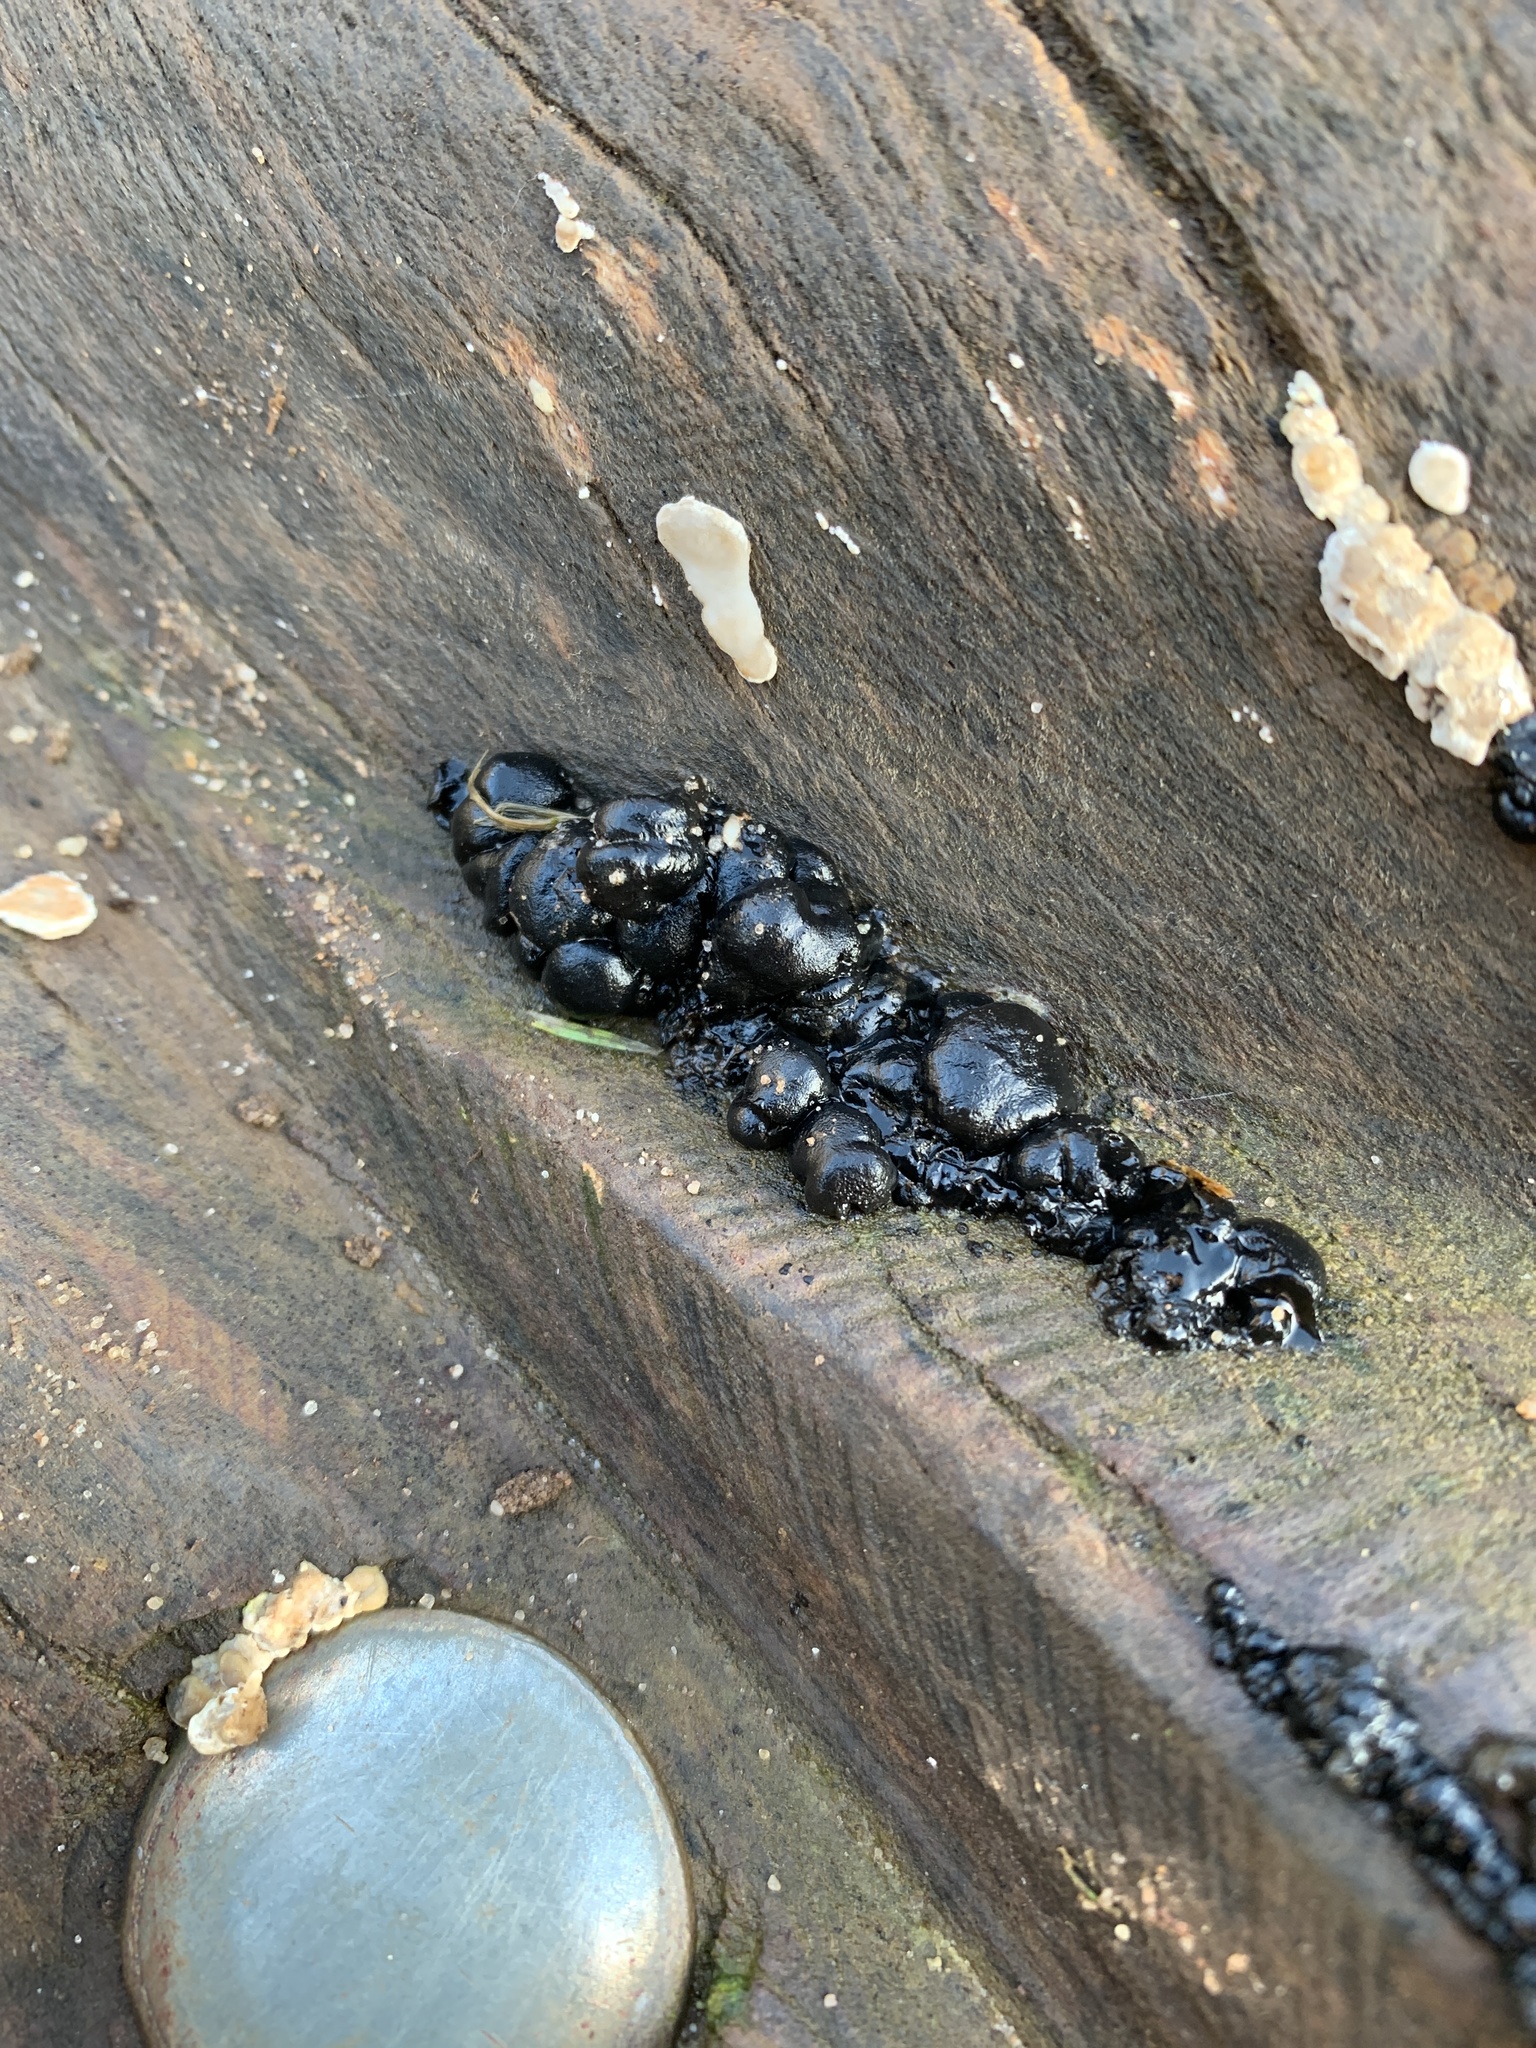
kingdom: Fungi
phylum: Basidiomycota
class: Agaricomycetes
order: Auriculariales
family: Auriculariaceae
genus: Exidia
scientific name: Exidia nigricans
